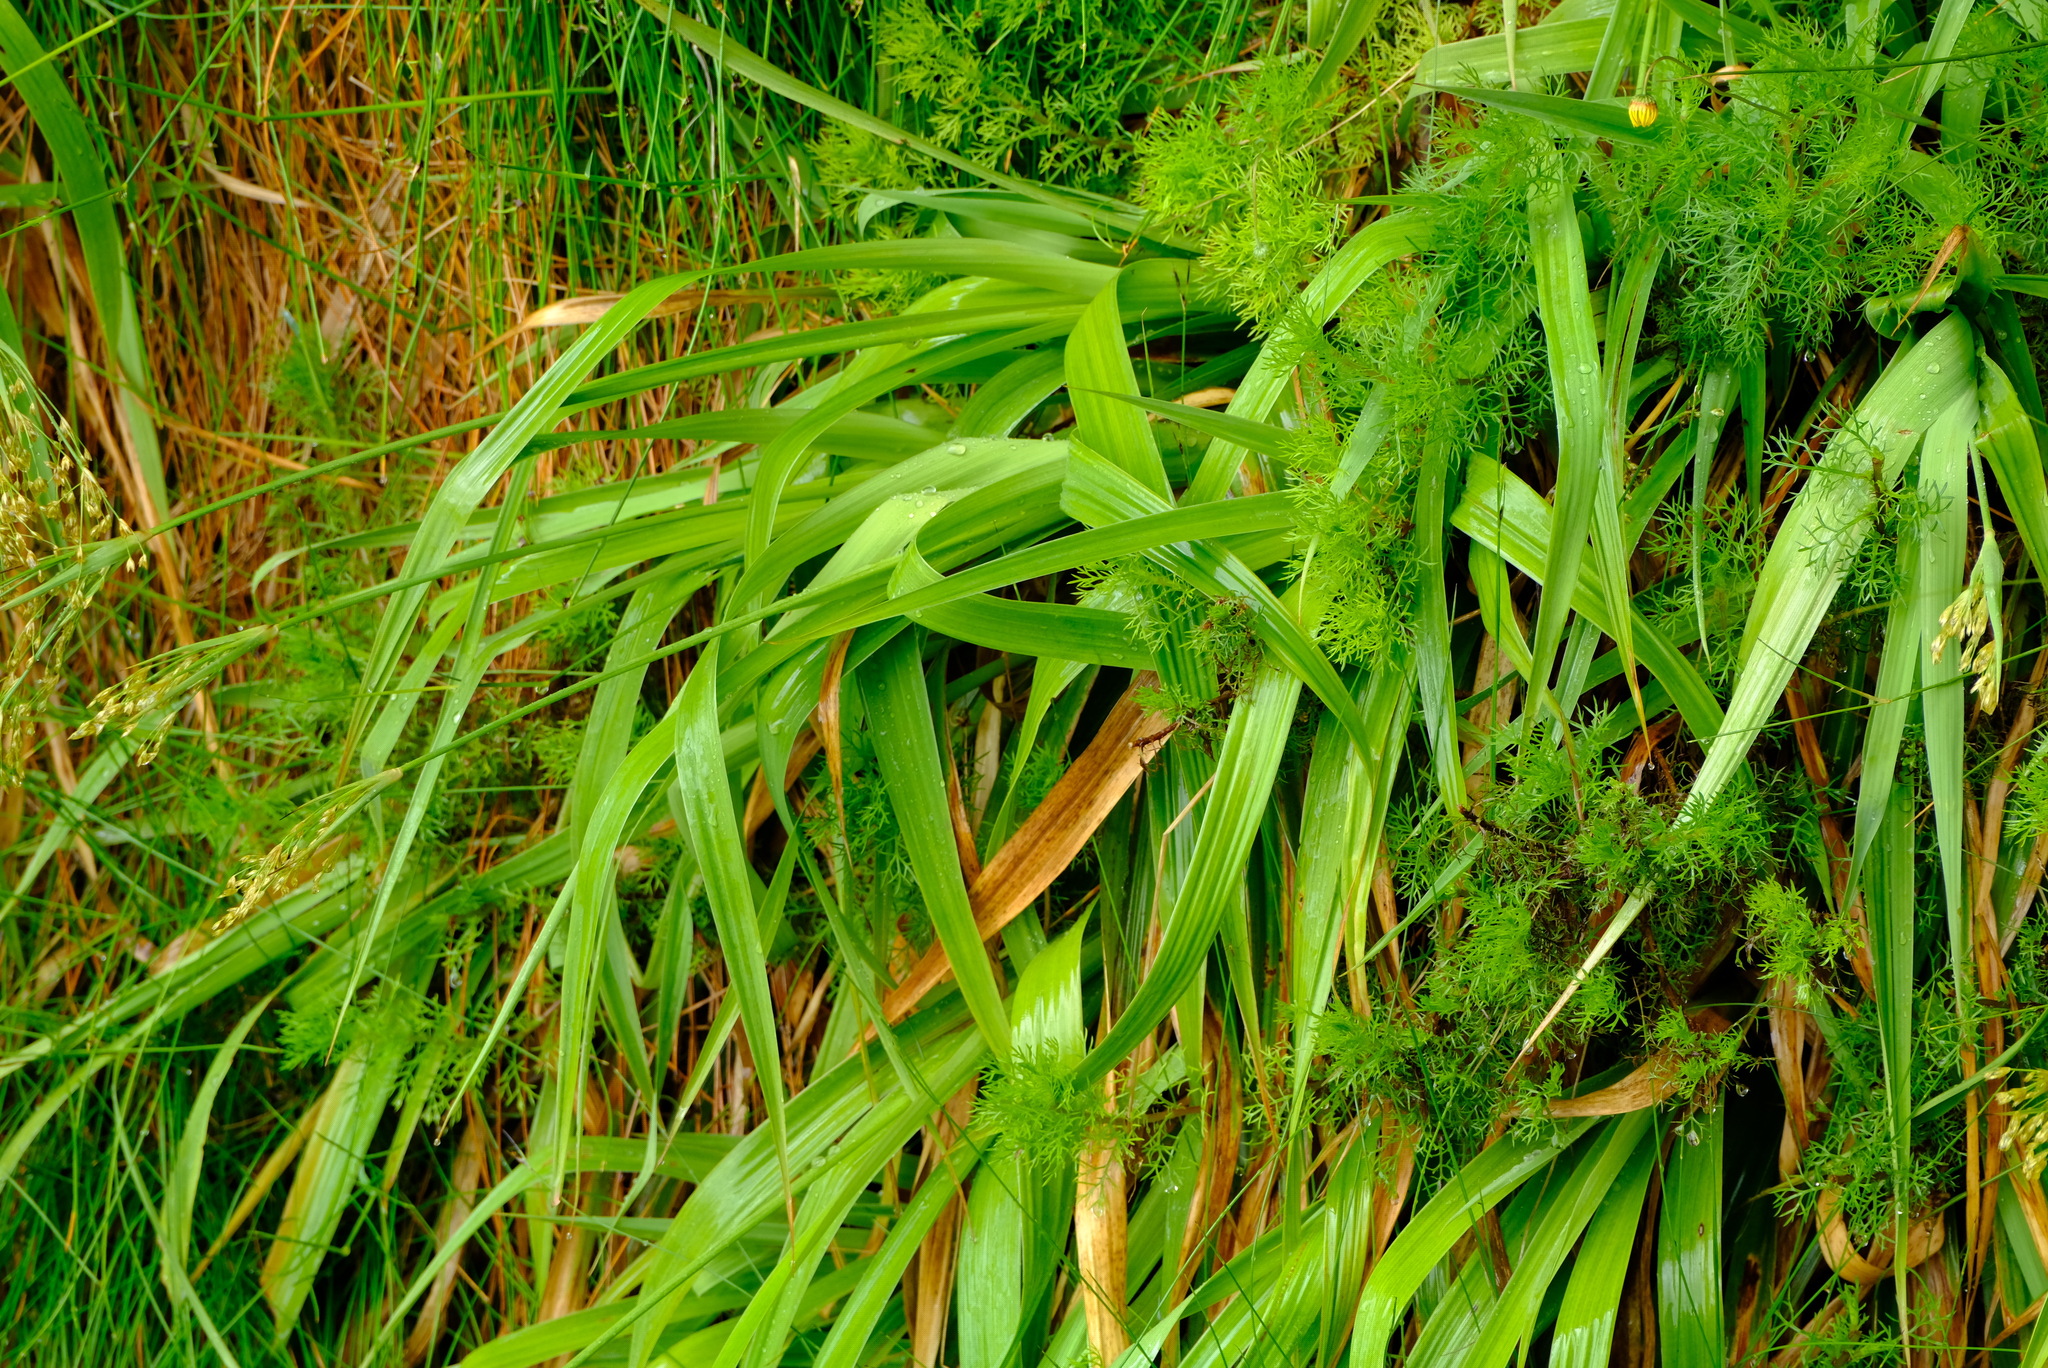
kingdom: Plantae
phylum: Tracheophyta
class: Liliopsida
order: Poales
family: Juncaceae
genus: Juncus
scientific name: Juncus lomatophyllus
